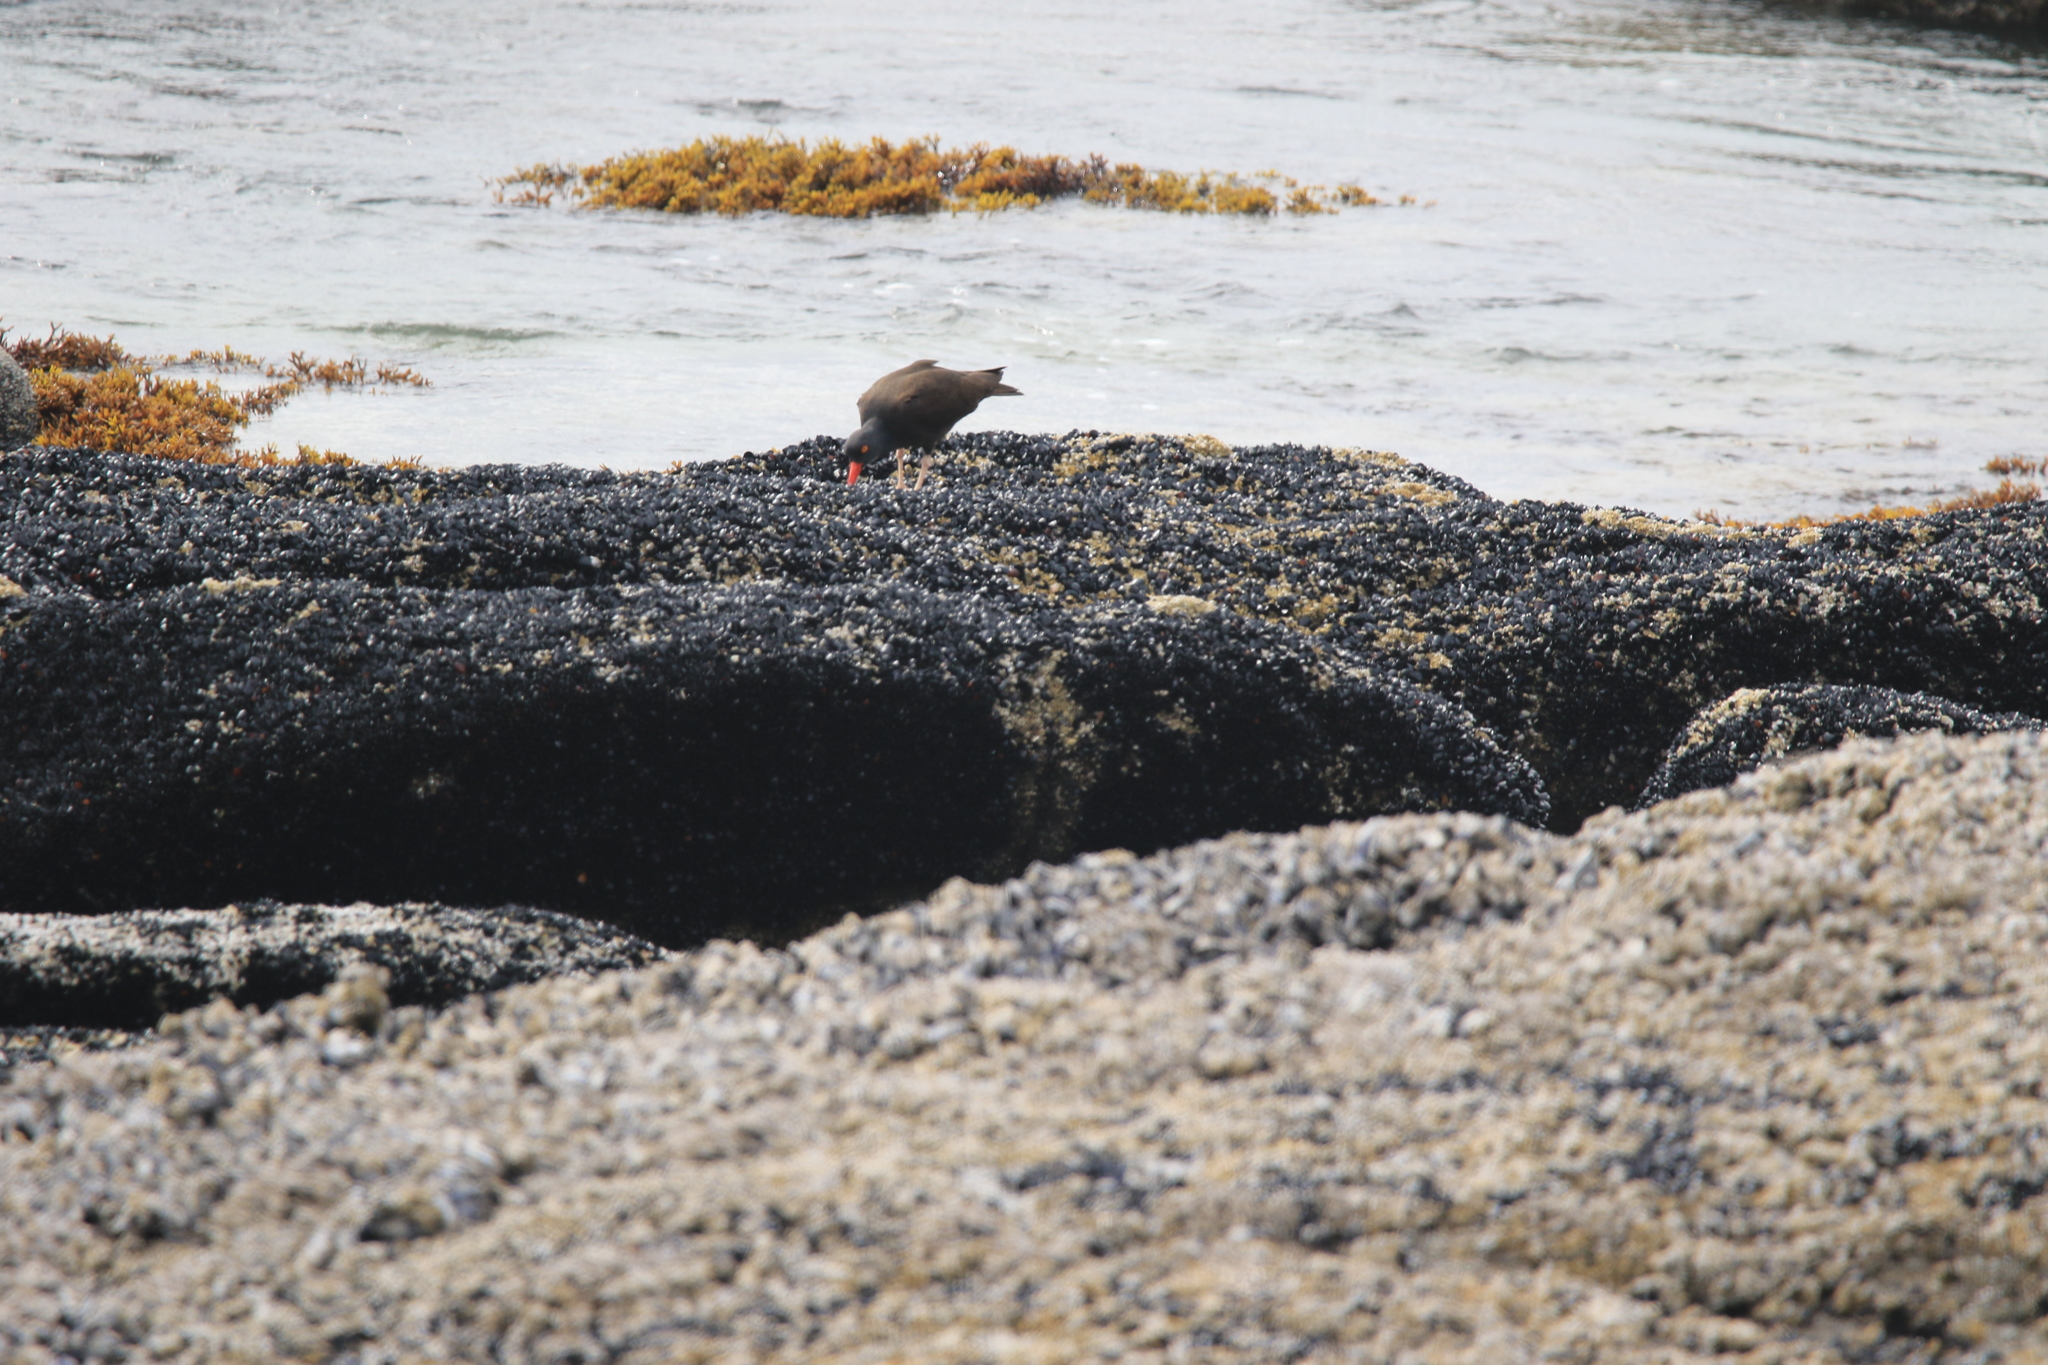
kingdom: Animalia
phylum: Chordata
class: Aves
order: Charadriiformes
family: Haematopodidae
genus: Haematopus
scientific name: Haematopus bachmani
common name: Black oystercatcher
